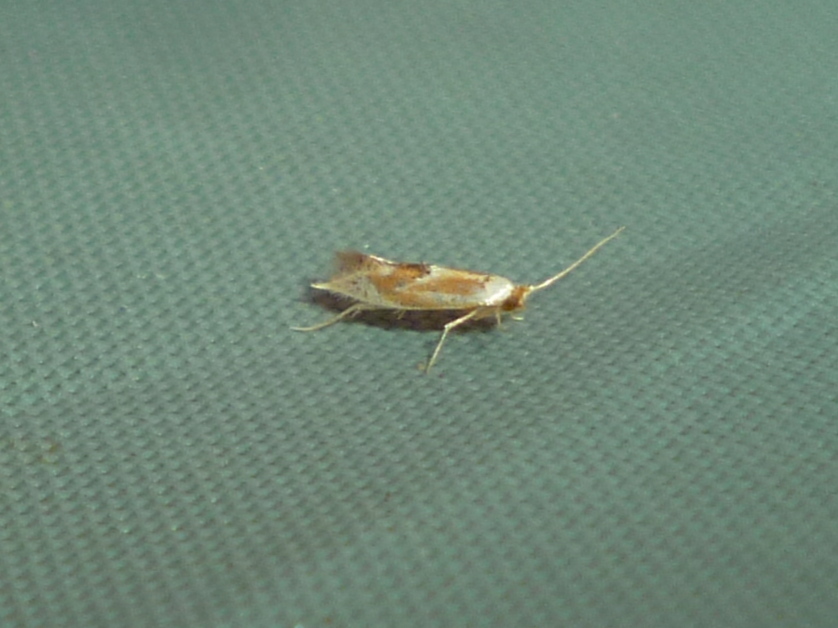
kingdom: Animalia
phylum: Arthropoda
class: Insecta
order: Lepidoptera
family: Lyonetiidae
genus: Philonome
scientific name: Philonome clemensella
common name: Clemen's philonome moth
